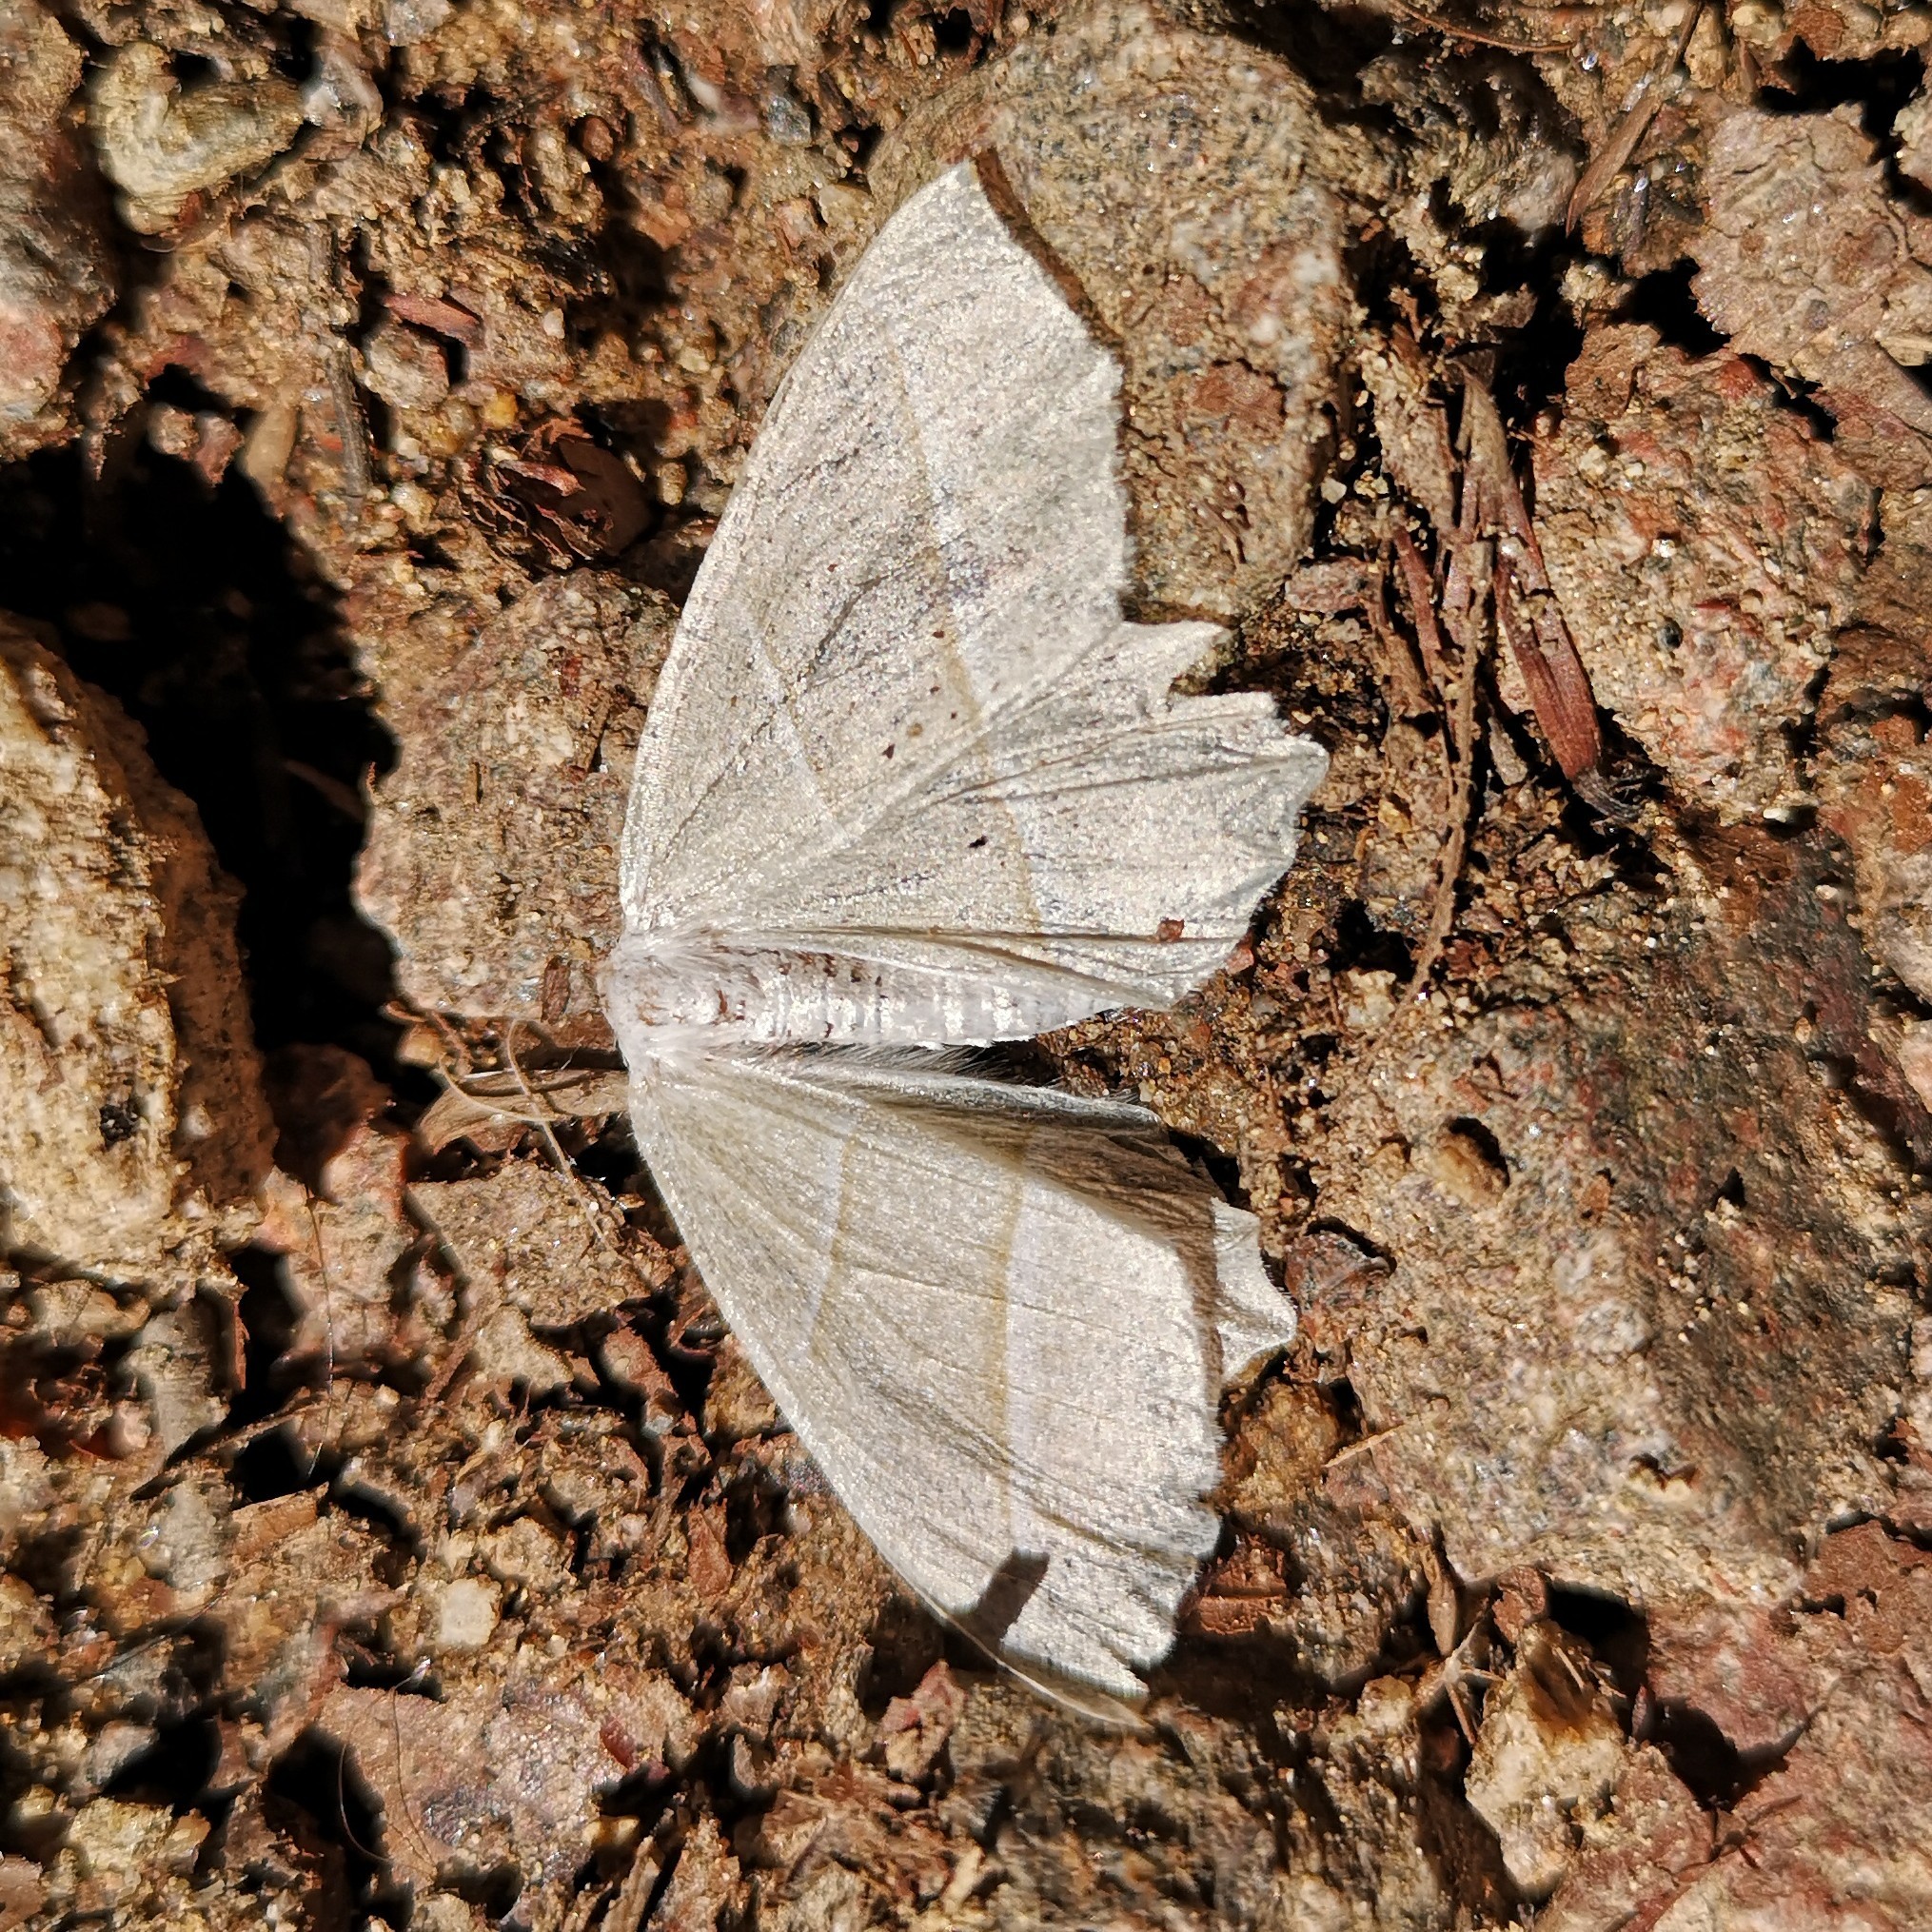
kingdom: Animalia
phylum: Arthropoda
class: Insecta
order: Lepidoptera
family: Geometridae
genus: Campaea
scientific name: Campaea margaritaria
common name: Light emerald
